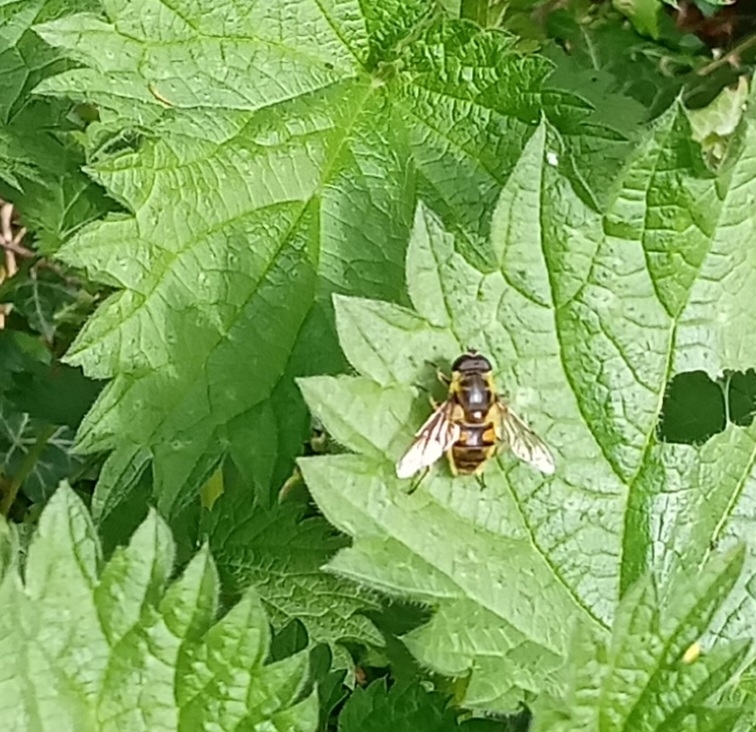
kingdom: Animalia
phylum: Arthropoda
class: Insecta
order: Diptera
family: Syrphidae
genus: Myathropa
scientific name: Myathropa florea
